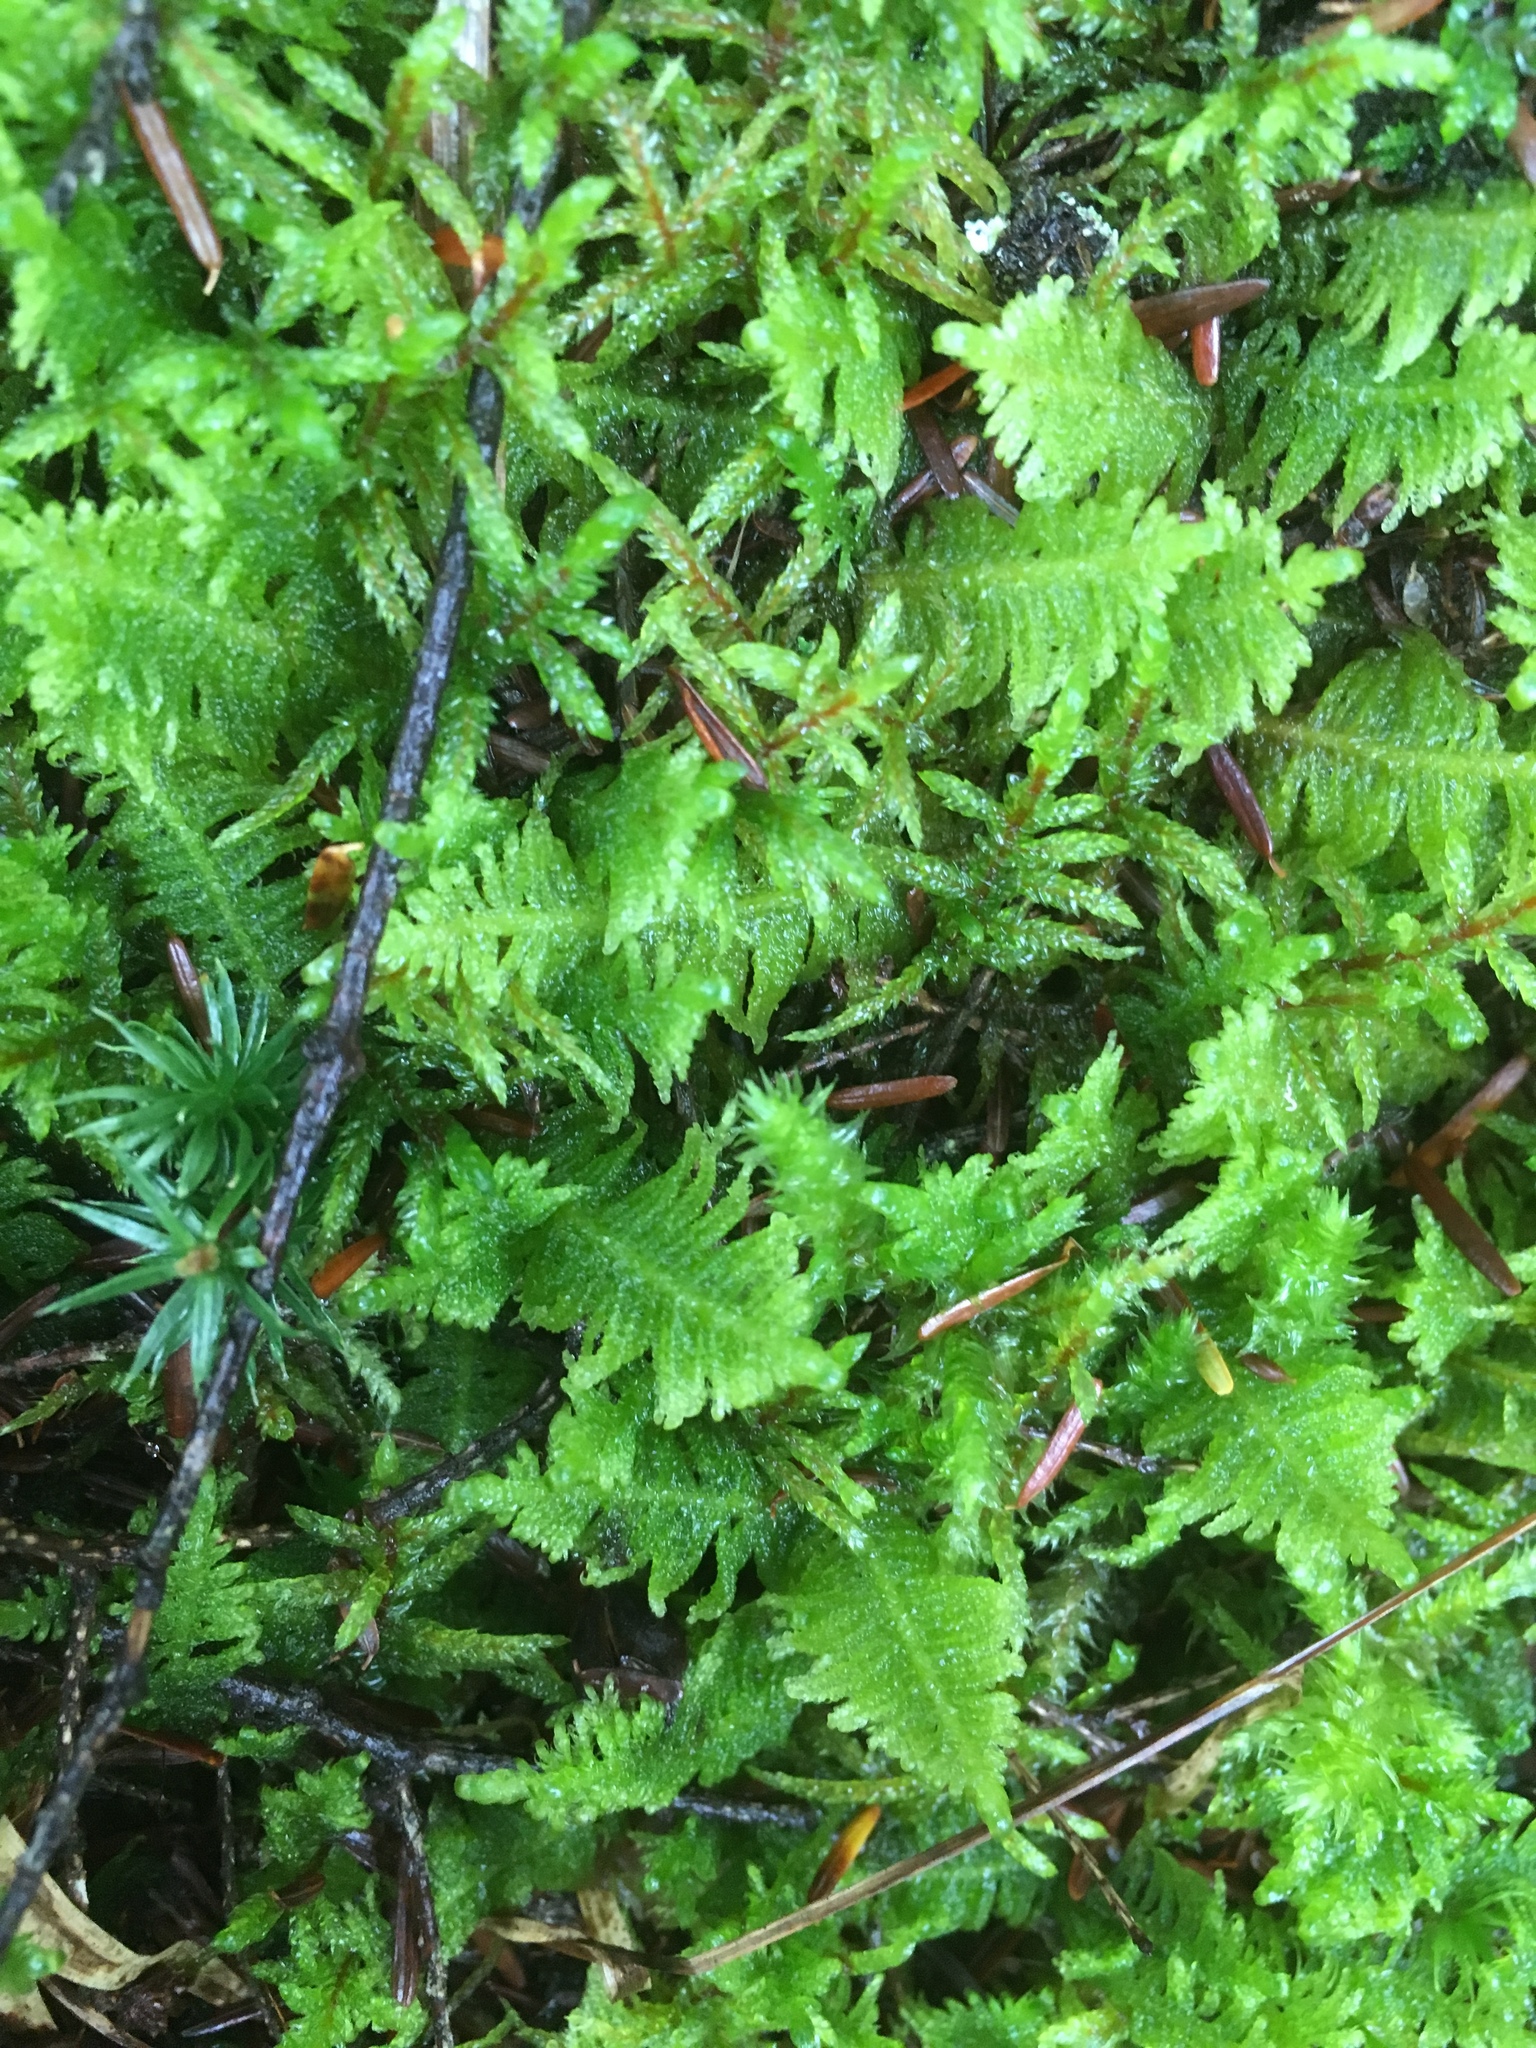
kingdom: Plantae
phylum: Bryophyta
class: Bryopsida
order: Hypnales
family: Pylaisiaceae
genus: Ptilium
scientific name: Ptilium crista-castrensis
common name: Knight's plume moss
